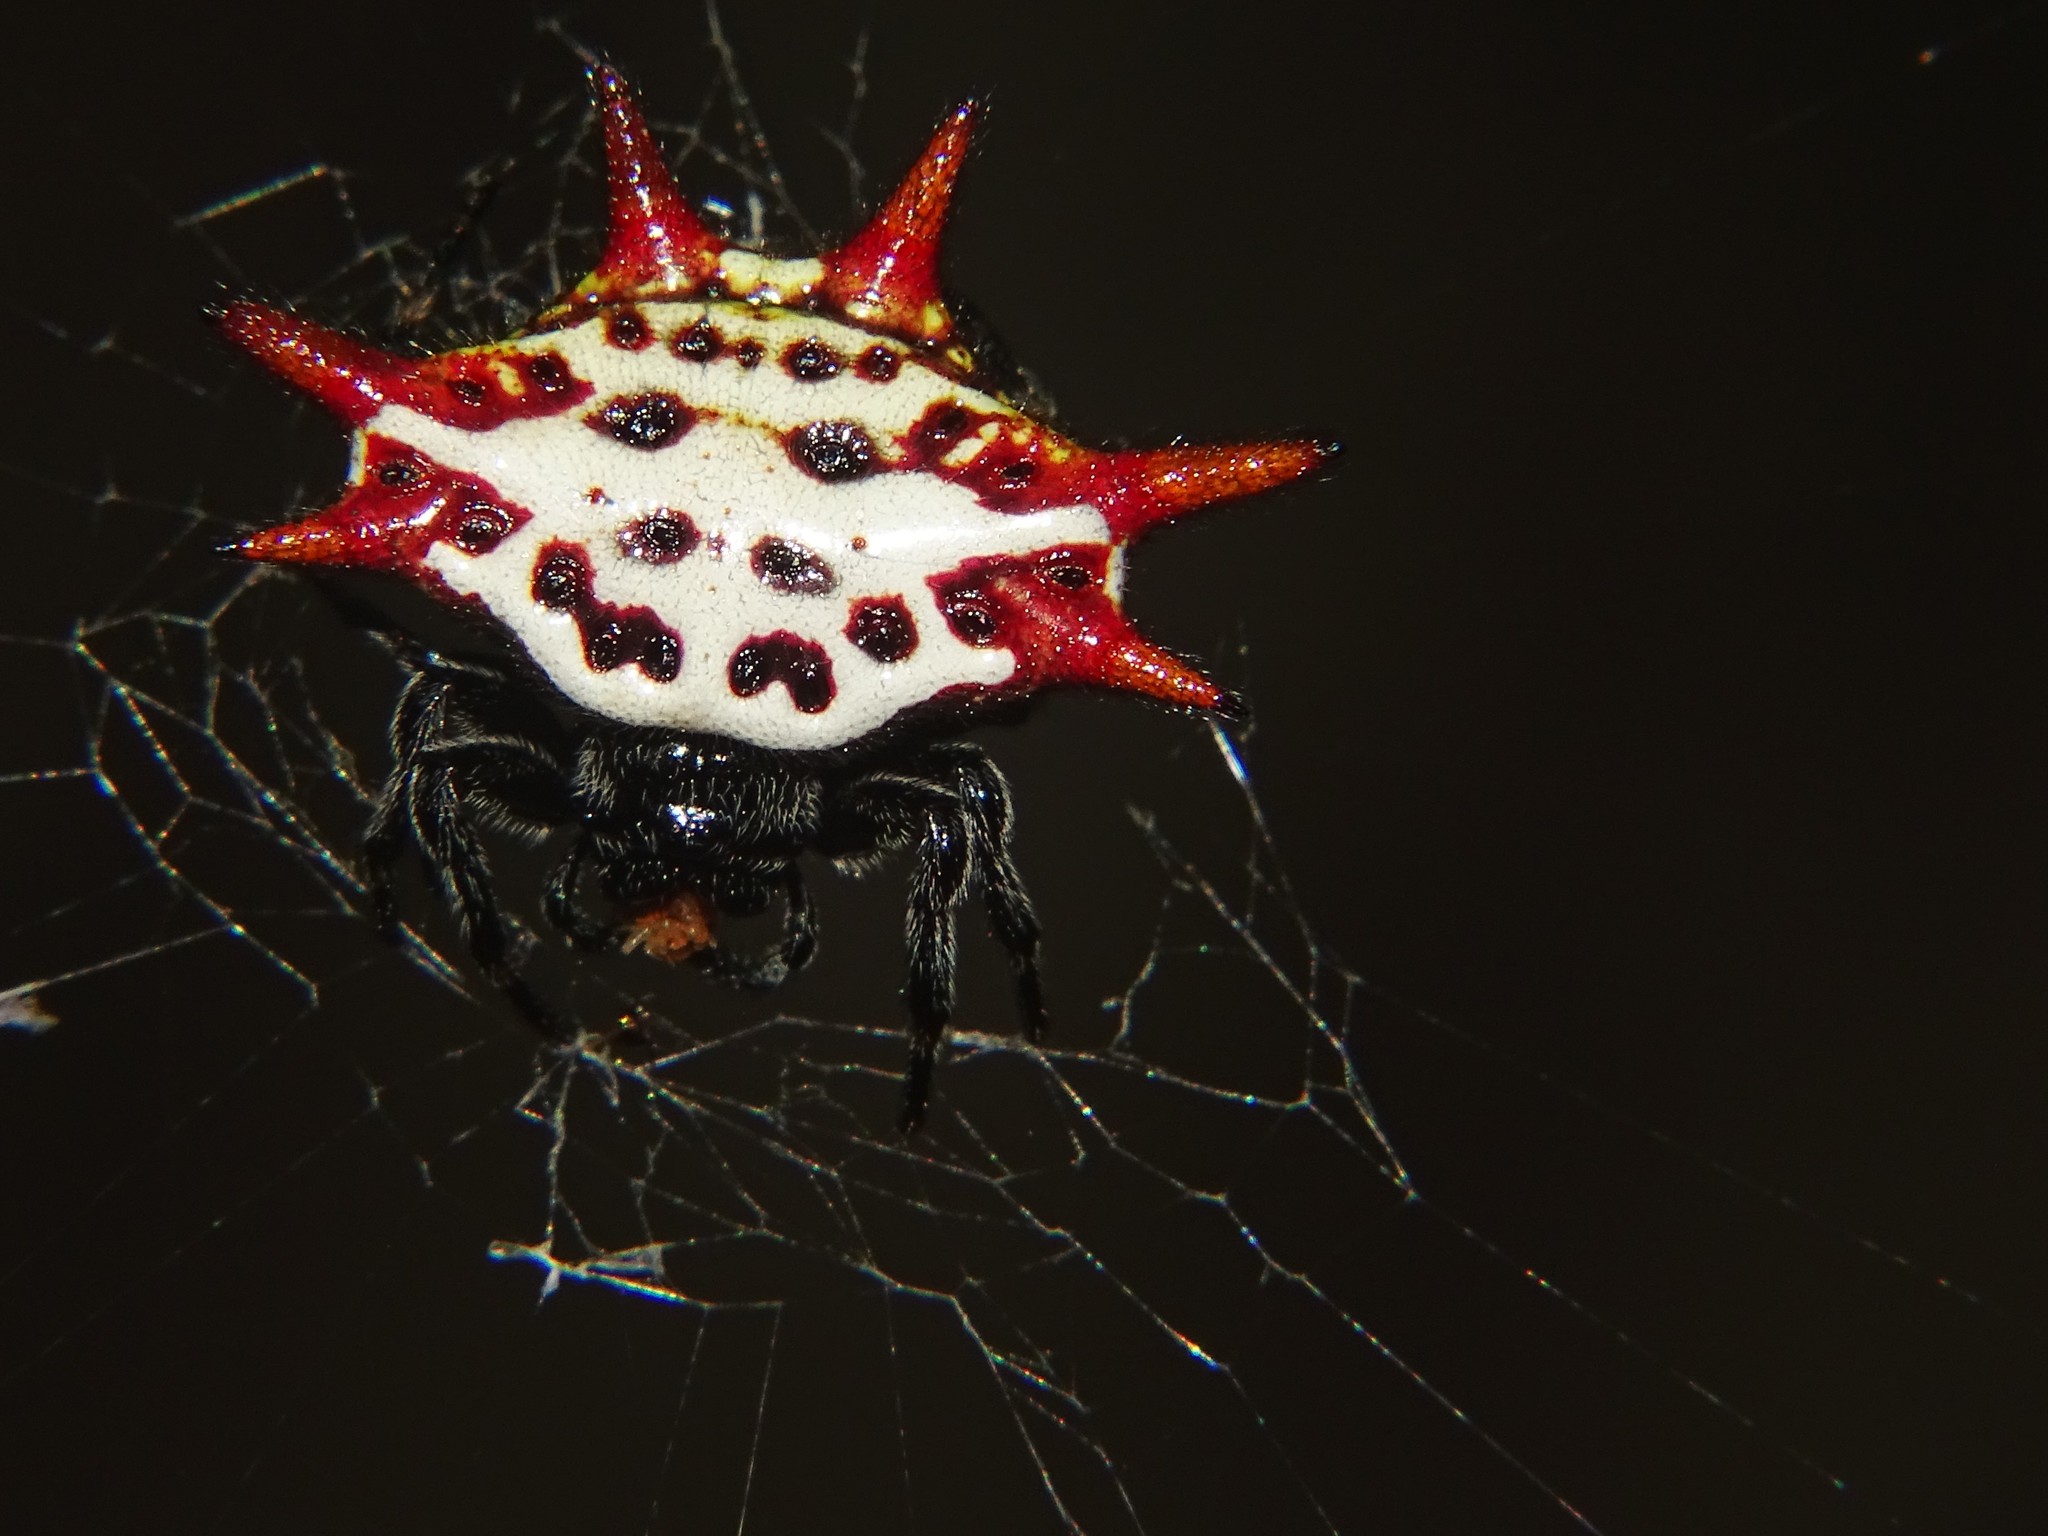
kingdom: Animalia
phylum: Arthropoda
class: Arachnida
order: Araneae
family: Araneidae
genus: Gasteracantha
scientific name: Gasteracantha cancriformis
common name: Orb weavers
